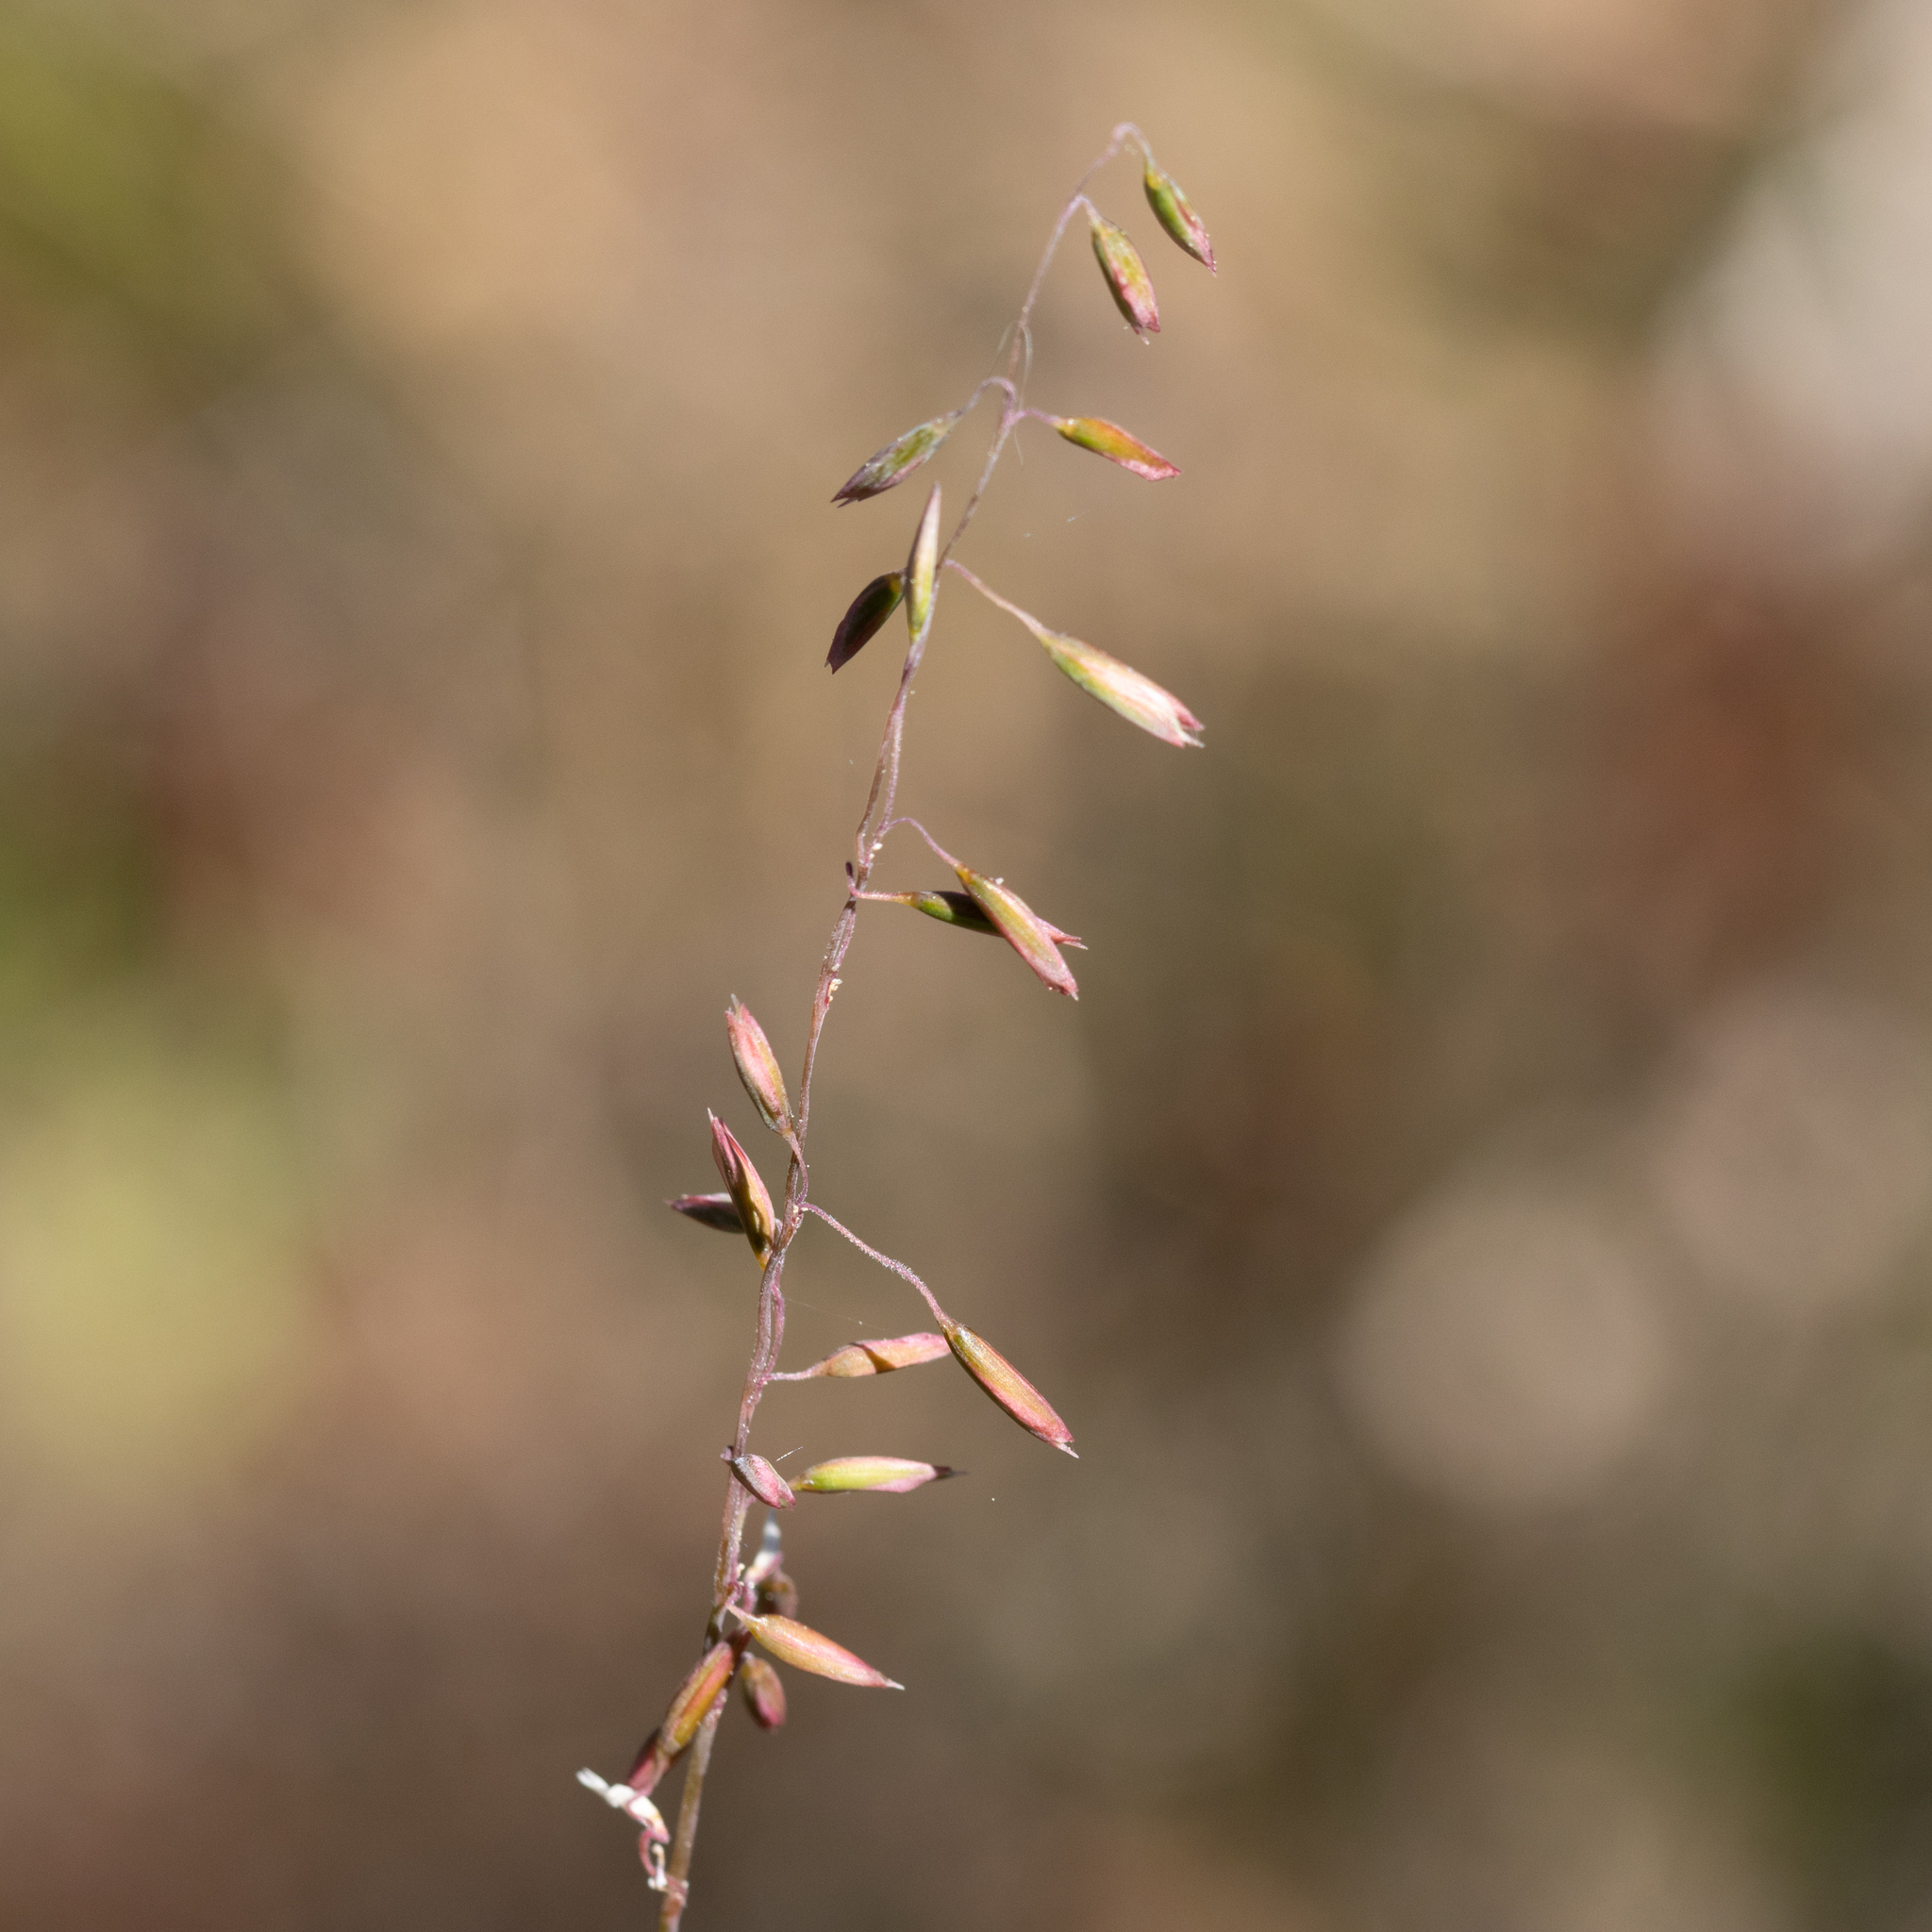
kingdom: Plantae
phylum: Tracheophyta
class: Liliopsida
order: Poales
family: Poaceae
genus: Ehrharta
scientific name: Ehrharta calycina
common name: Perennial veldtgrass
